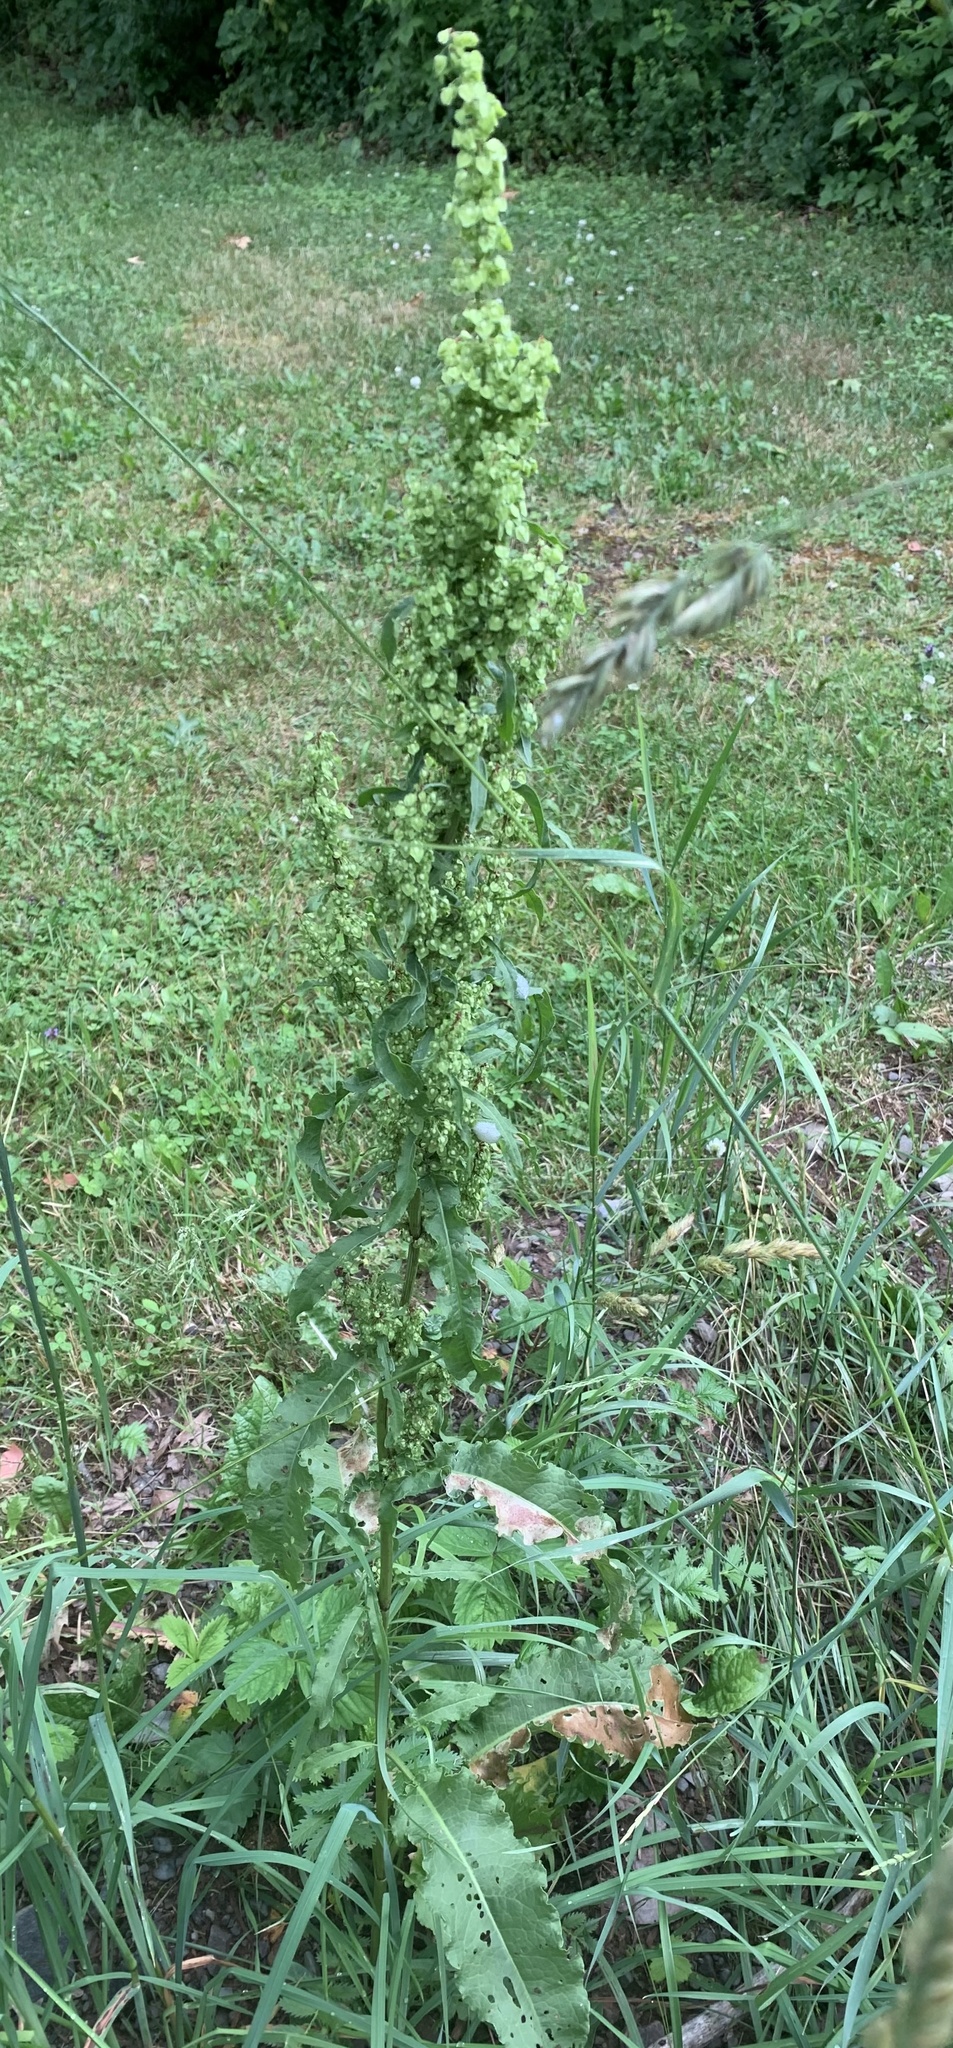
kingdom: Plantae
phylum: Tracheophyta
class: Magnoliopsida
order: Caryophyllales
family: Polygonaceae
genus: Rumex
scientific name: Rumex crispus
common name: Curled dock
